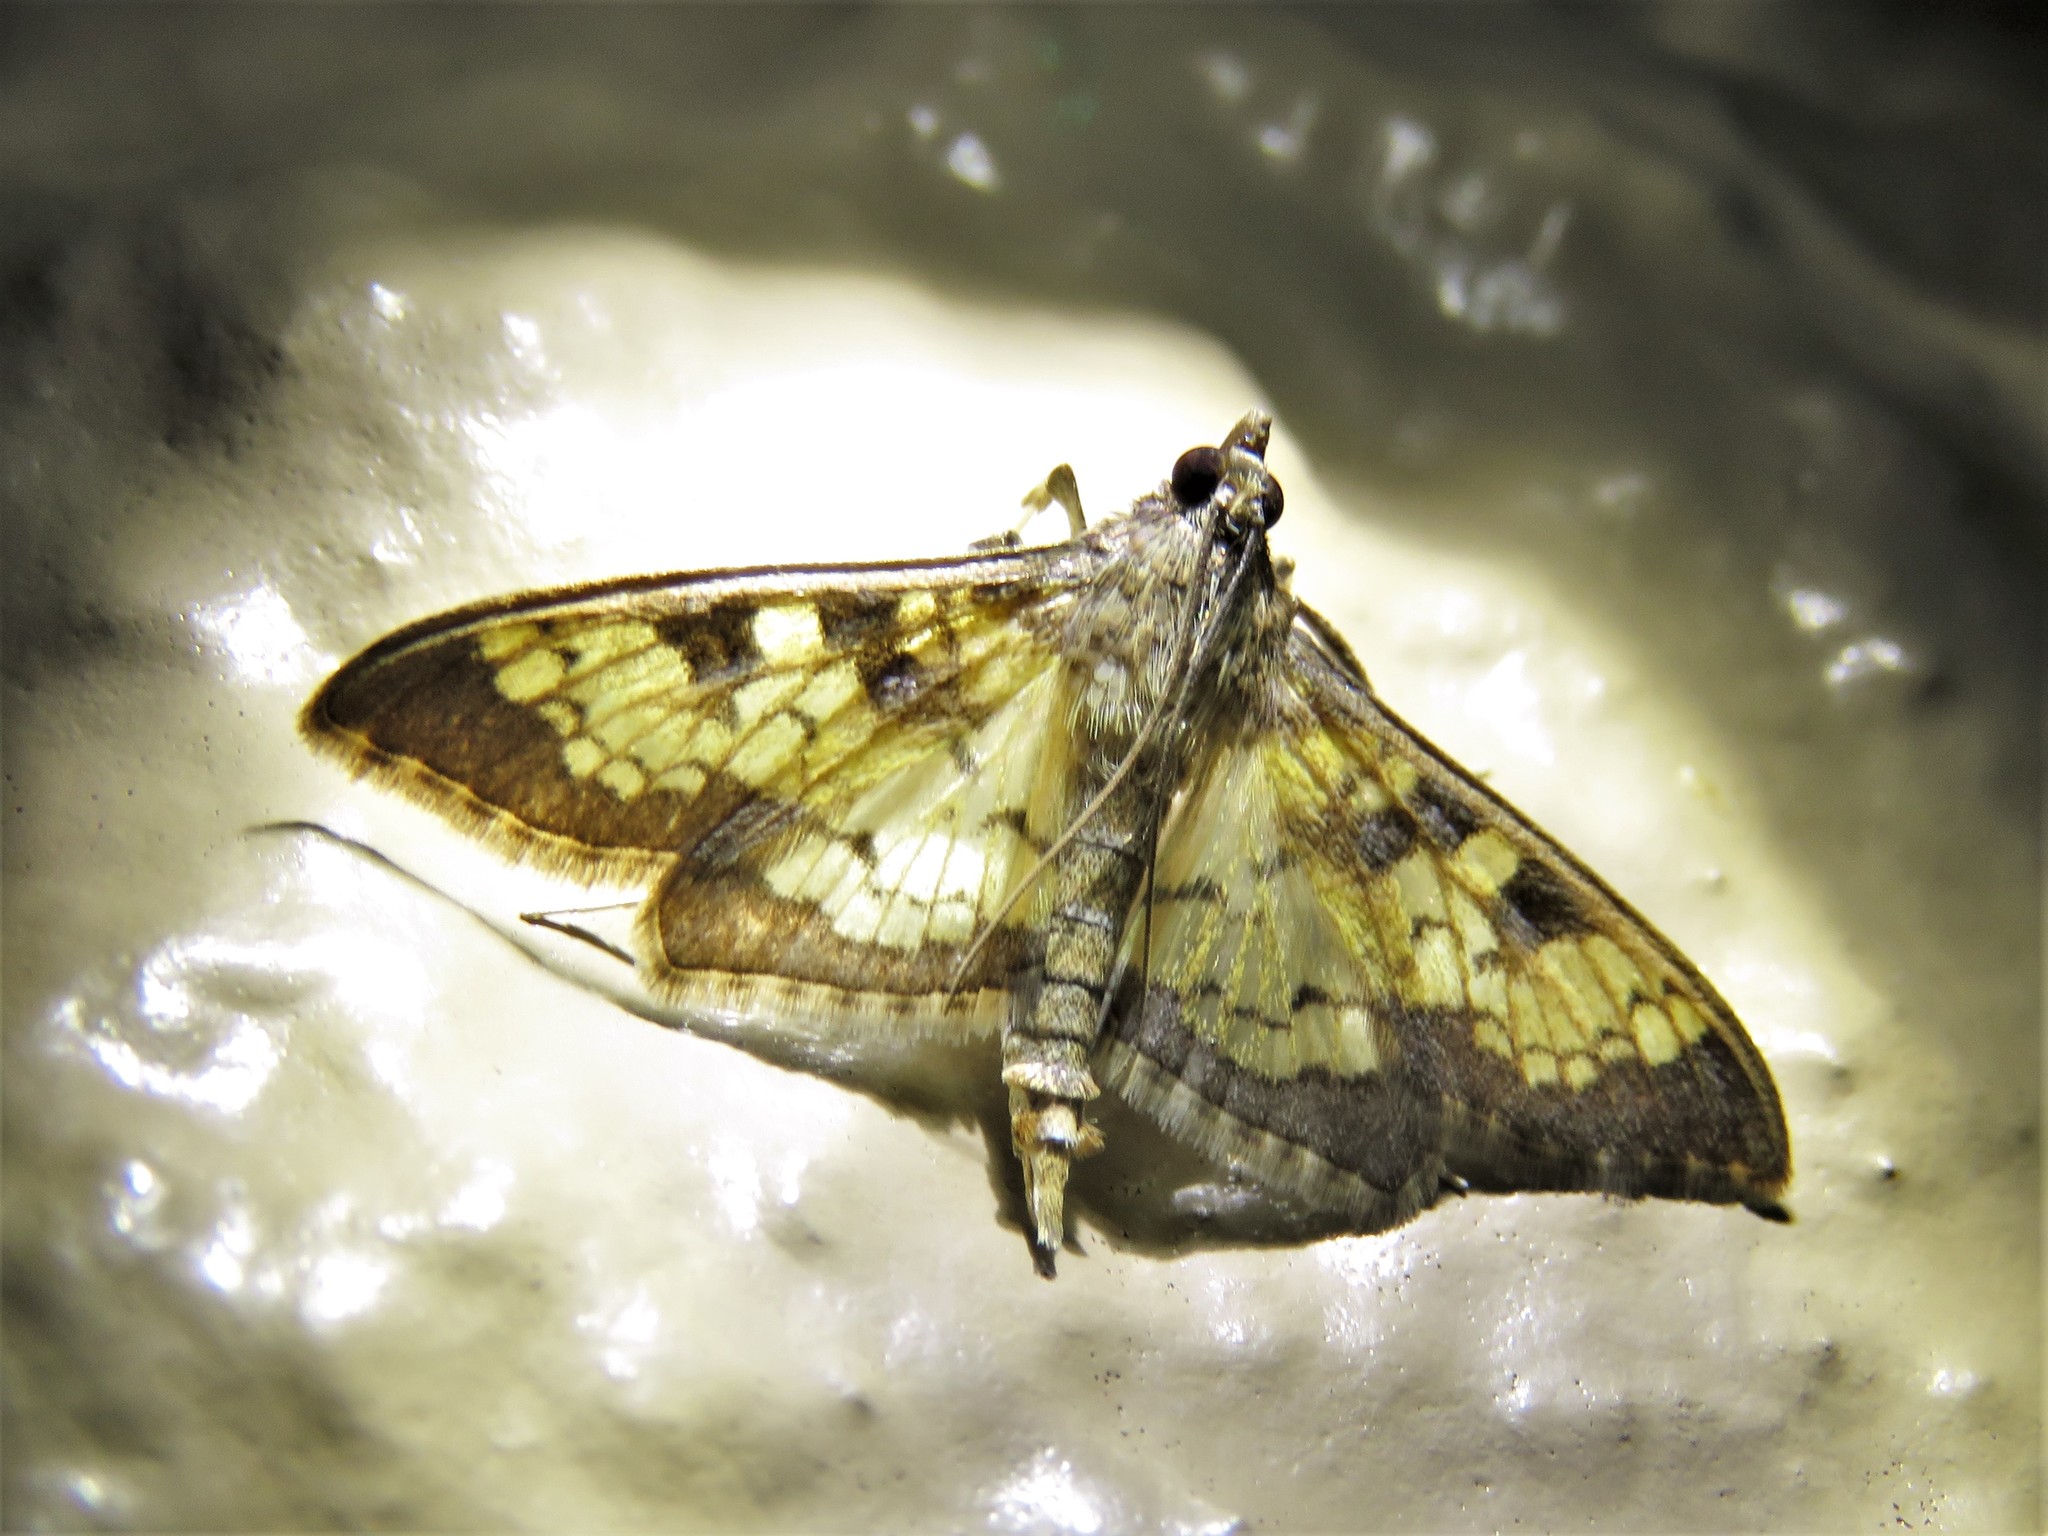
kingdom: Animalia
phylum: Arthropoda
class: Insecta
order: Lepidoptera
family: Crambidae
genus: Cryptographis
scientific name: Cryptographis elealis
